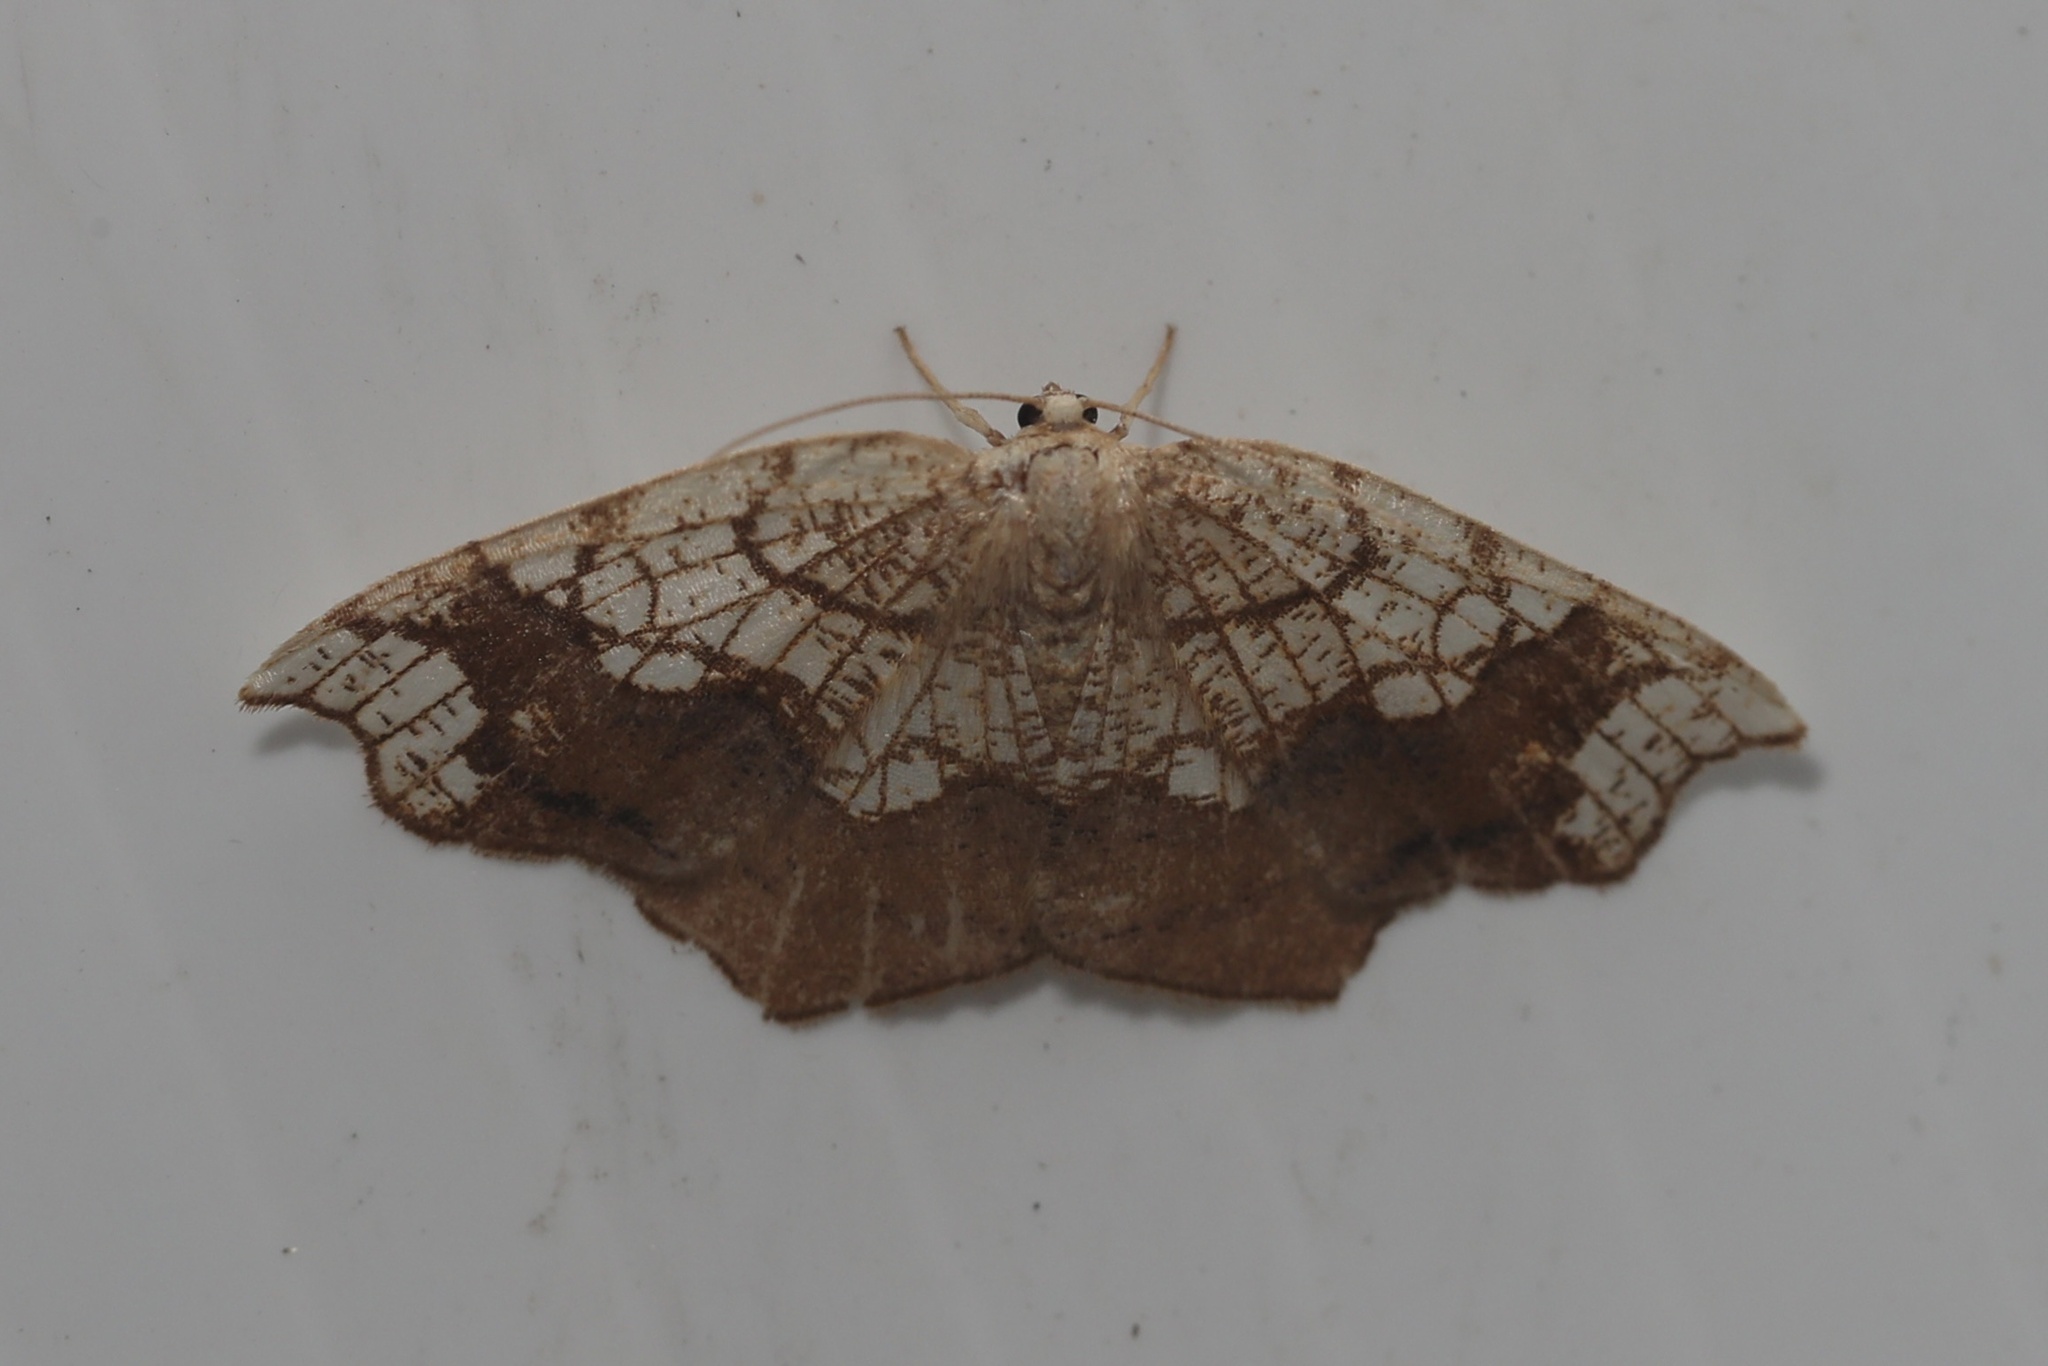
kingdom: Animalia
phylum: Arthropoda
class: Insecta
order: Lepidoptera
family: Geometridae
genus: Nematocampa
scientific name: Nematocampa resistaria
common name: Horned spanworm moth
